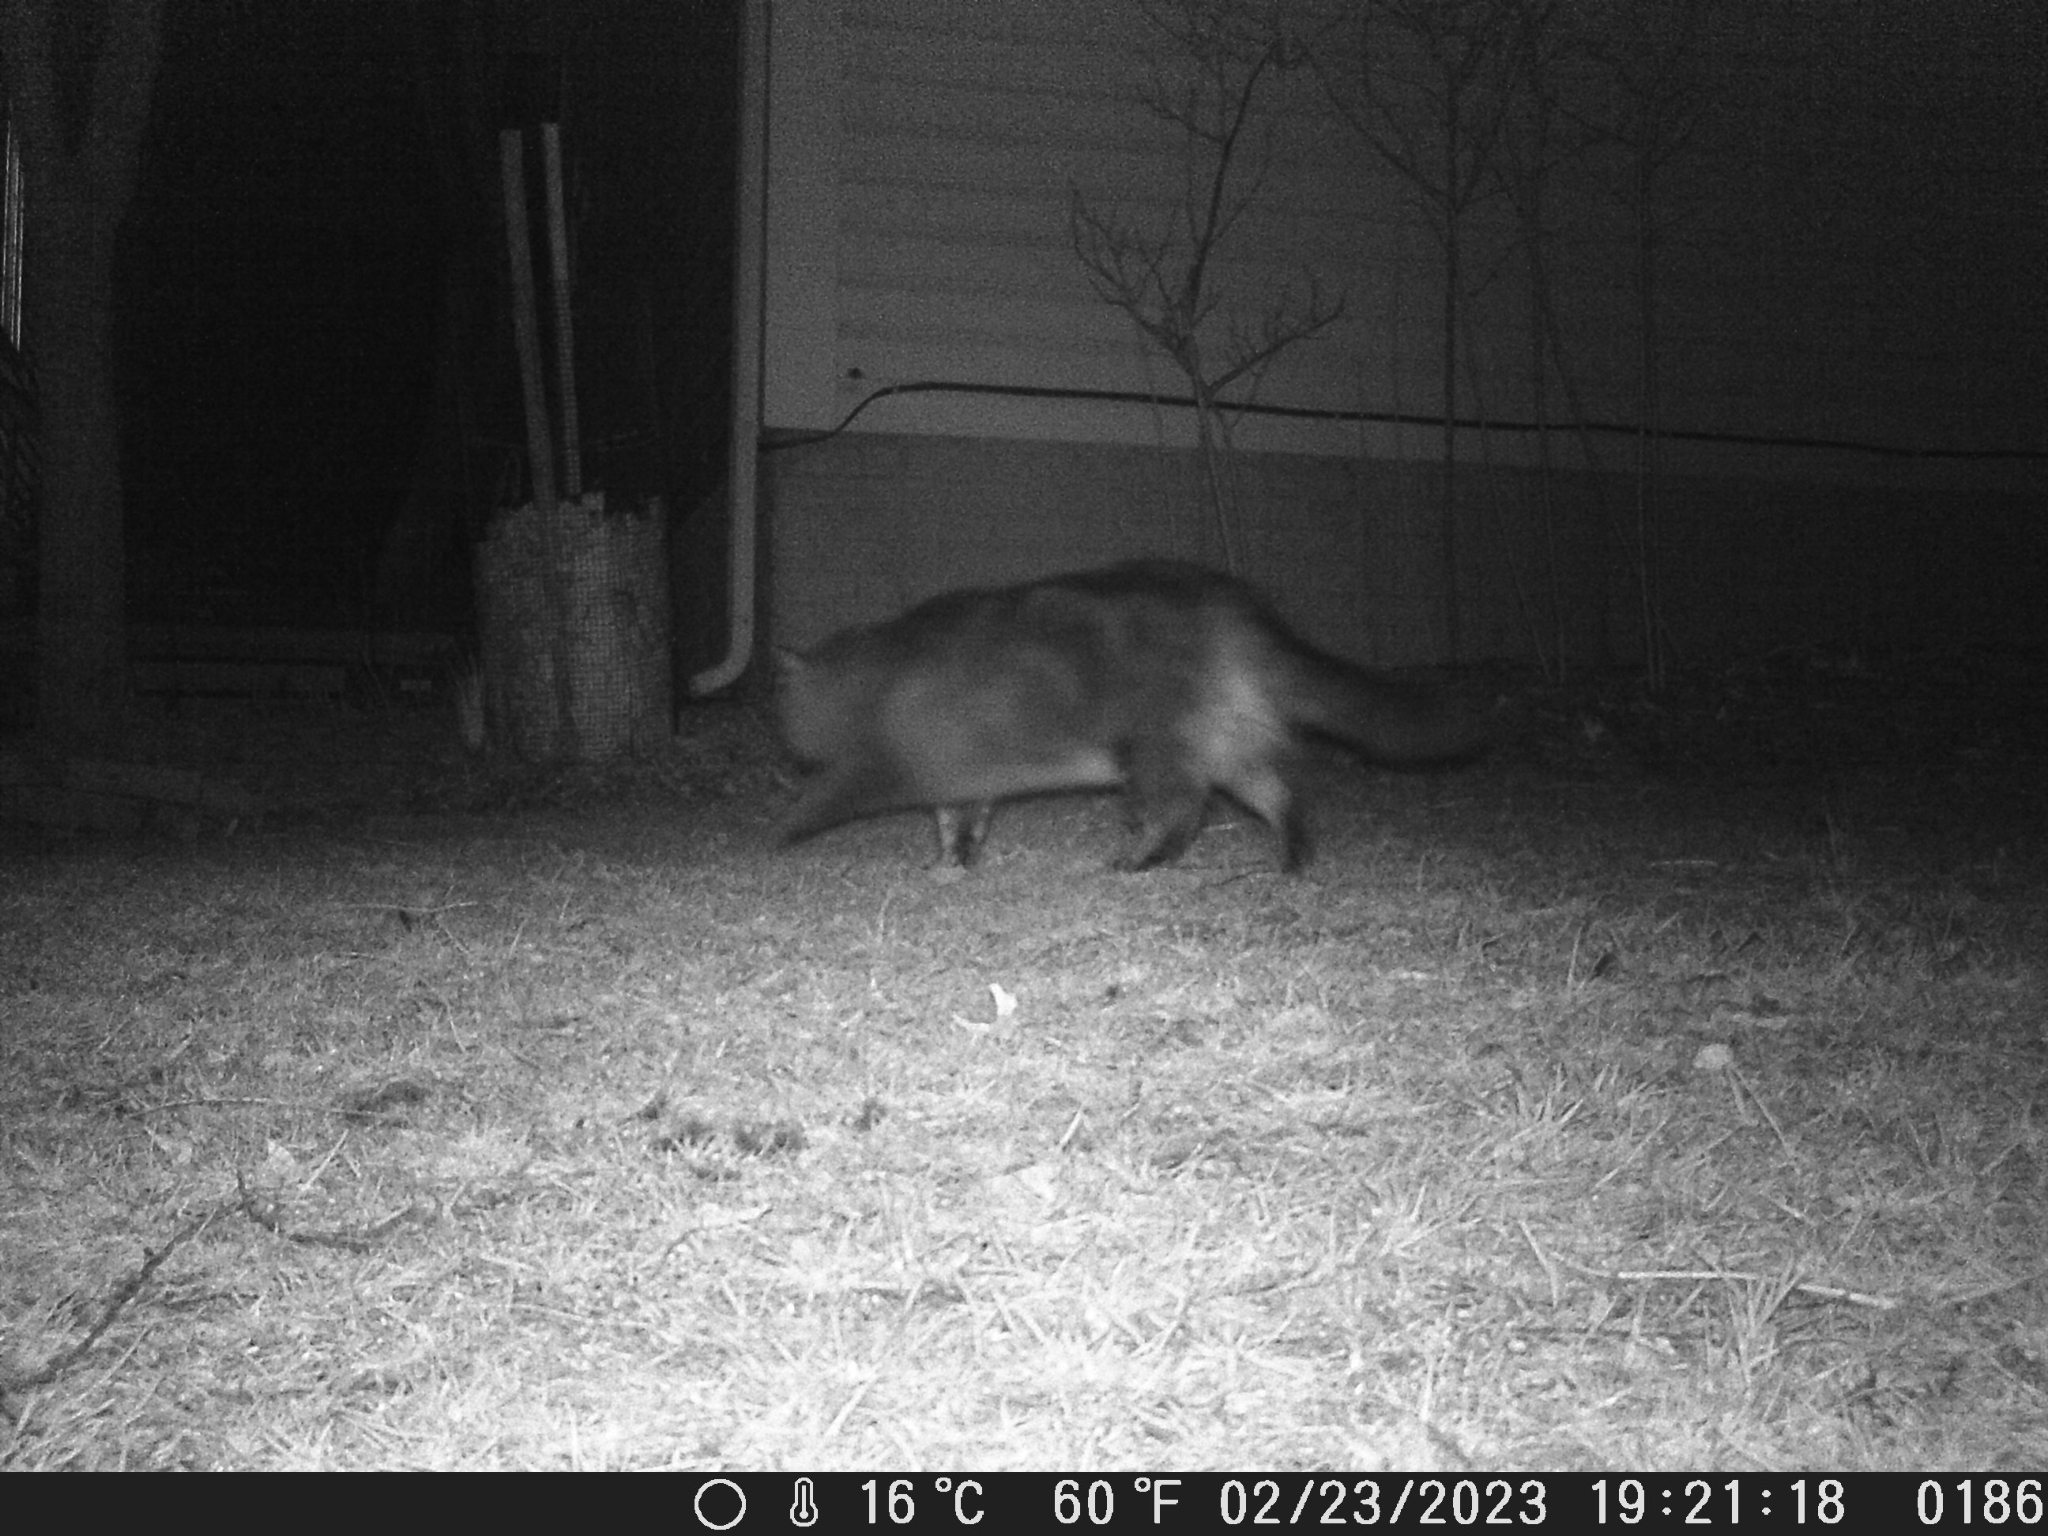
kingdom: Animalia
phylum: Chordata
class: Mammalia
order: Carnivora
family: Felidae
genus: Felis
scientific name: Felis catus
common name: Domestic cat
